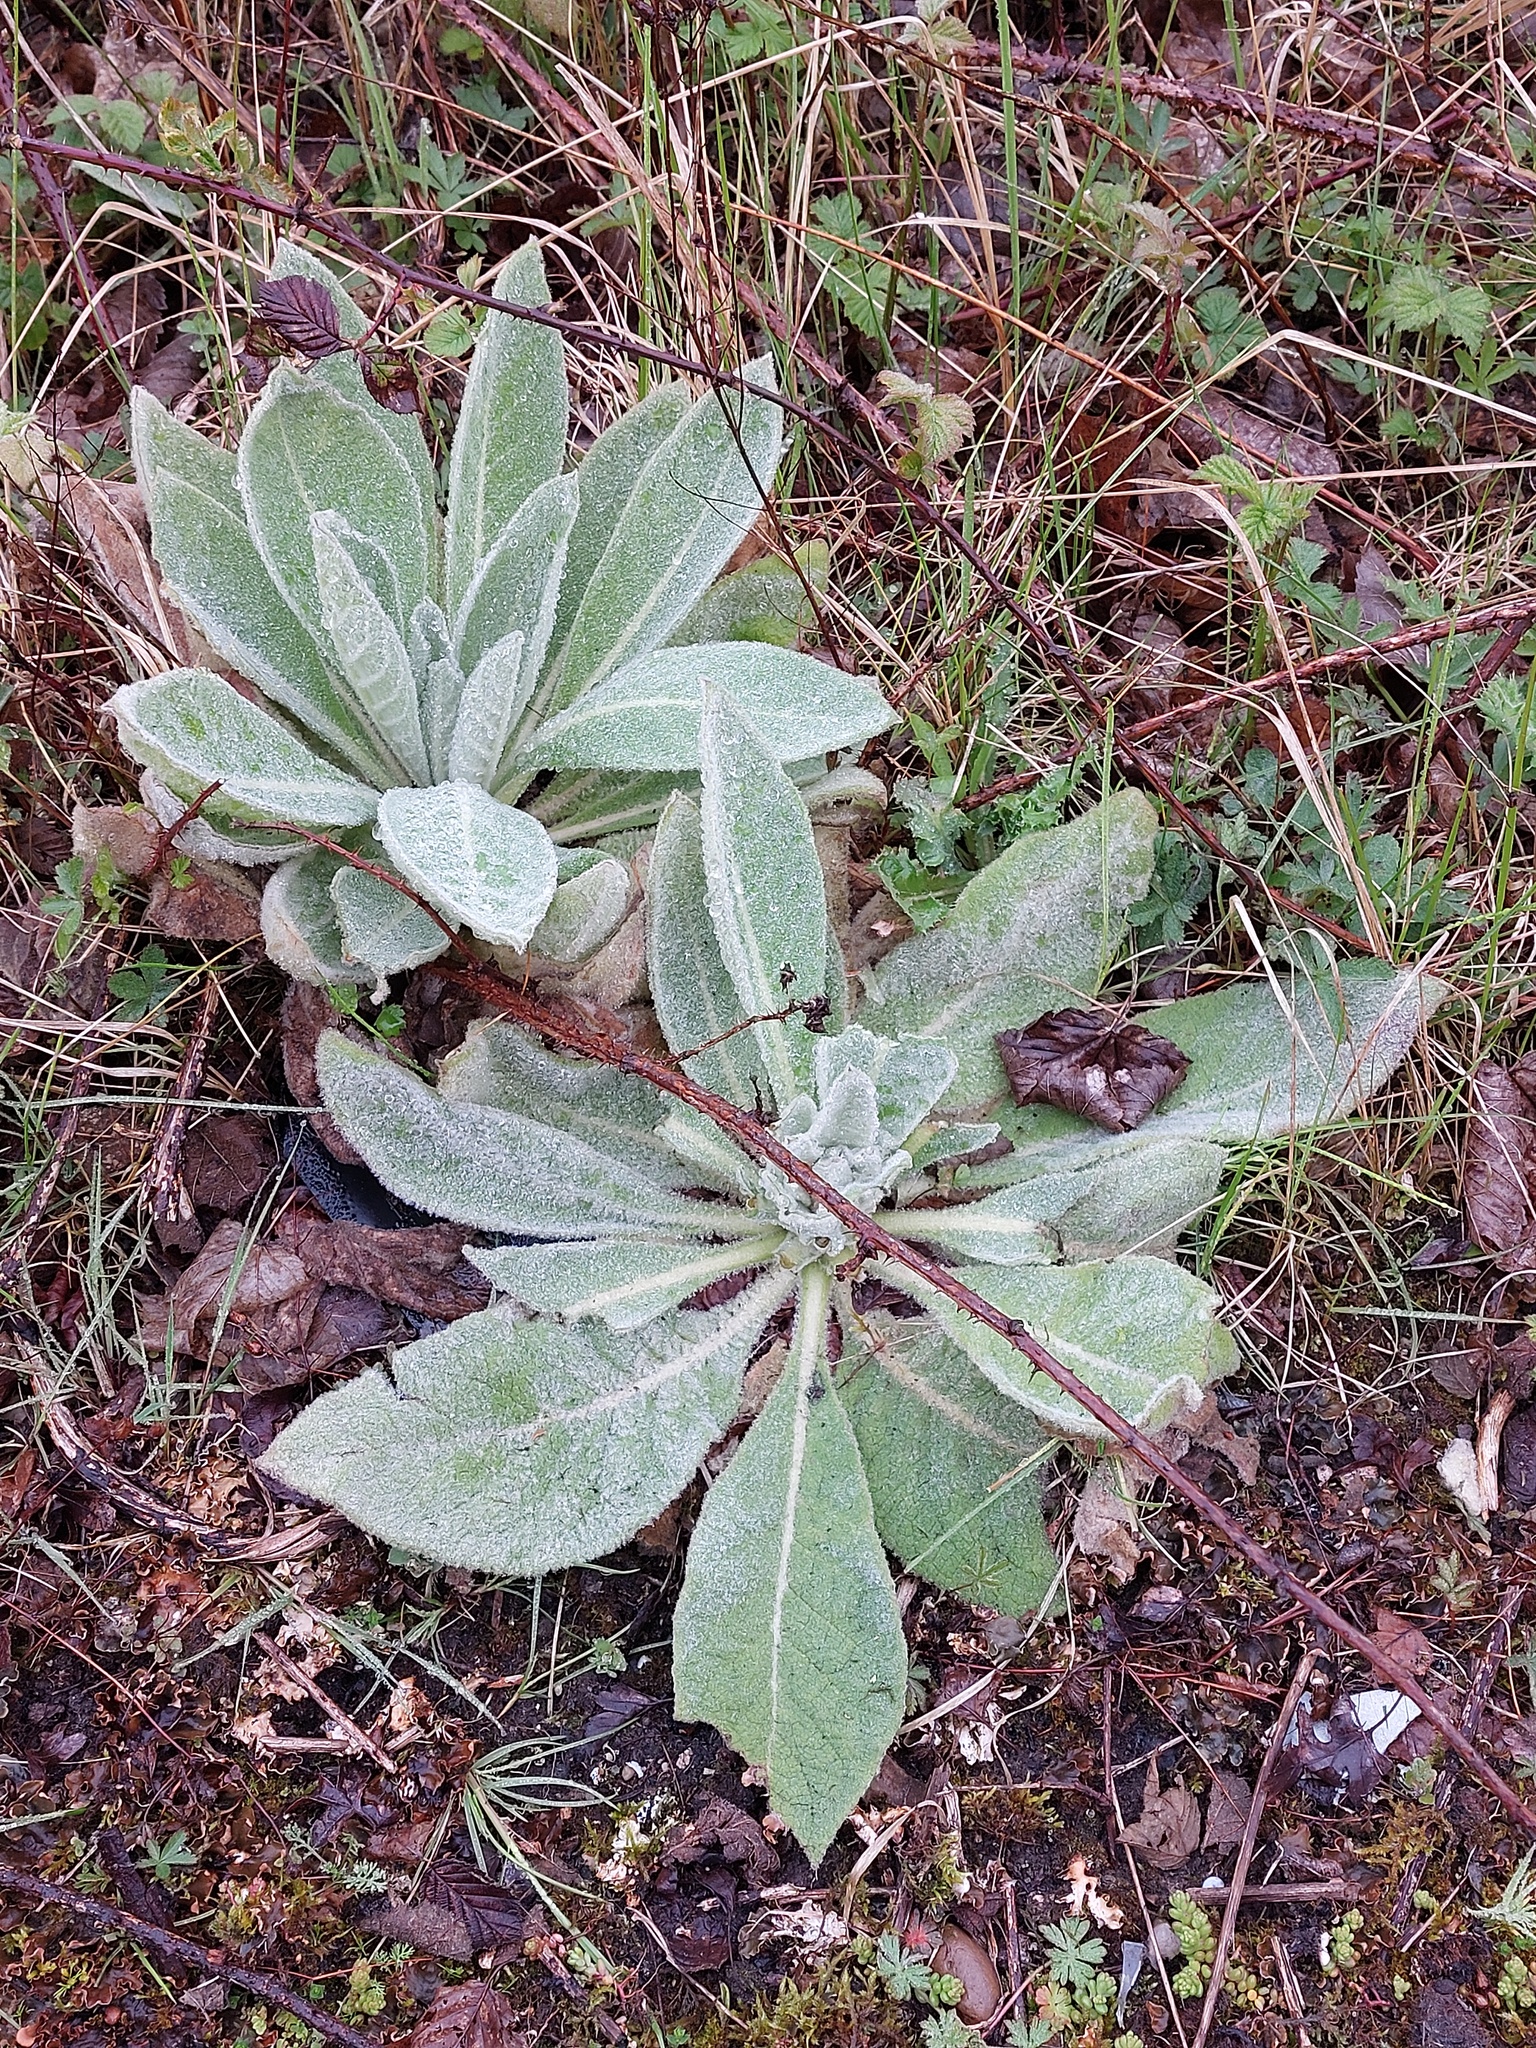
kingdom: Plantae
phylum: Tracheophyta
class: Magnoliopsida
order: Lamiales
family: Scrophulariaceae
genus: Verbascum
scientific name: Verbascum thapsus
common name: Common mullein
